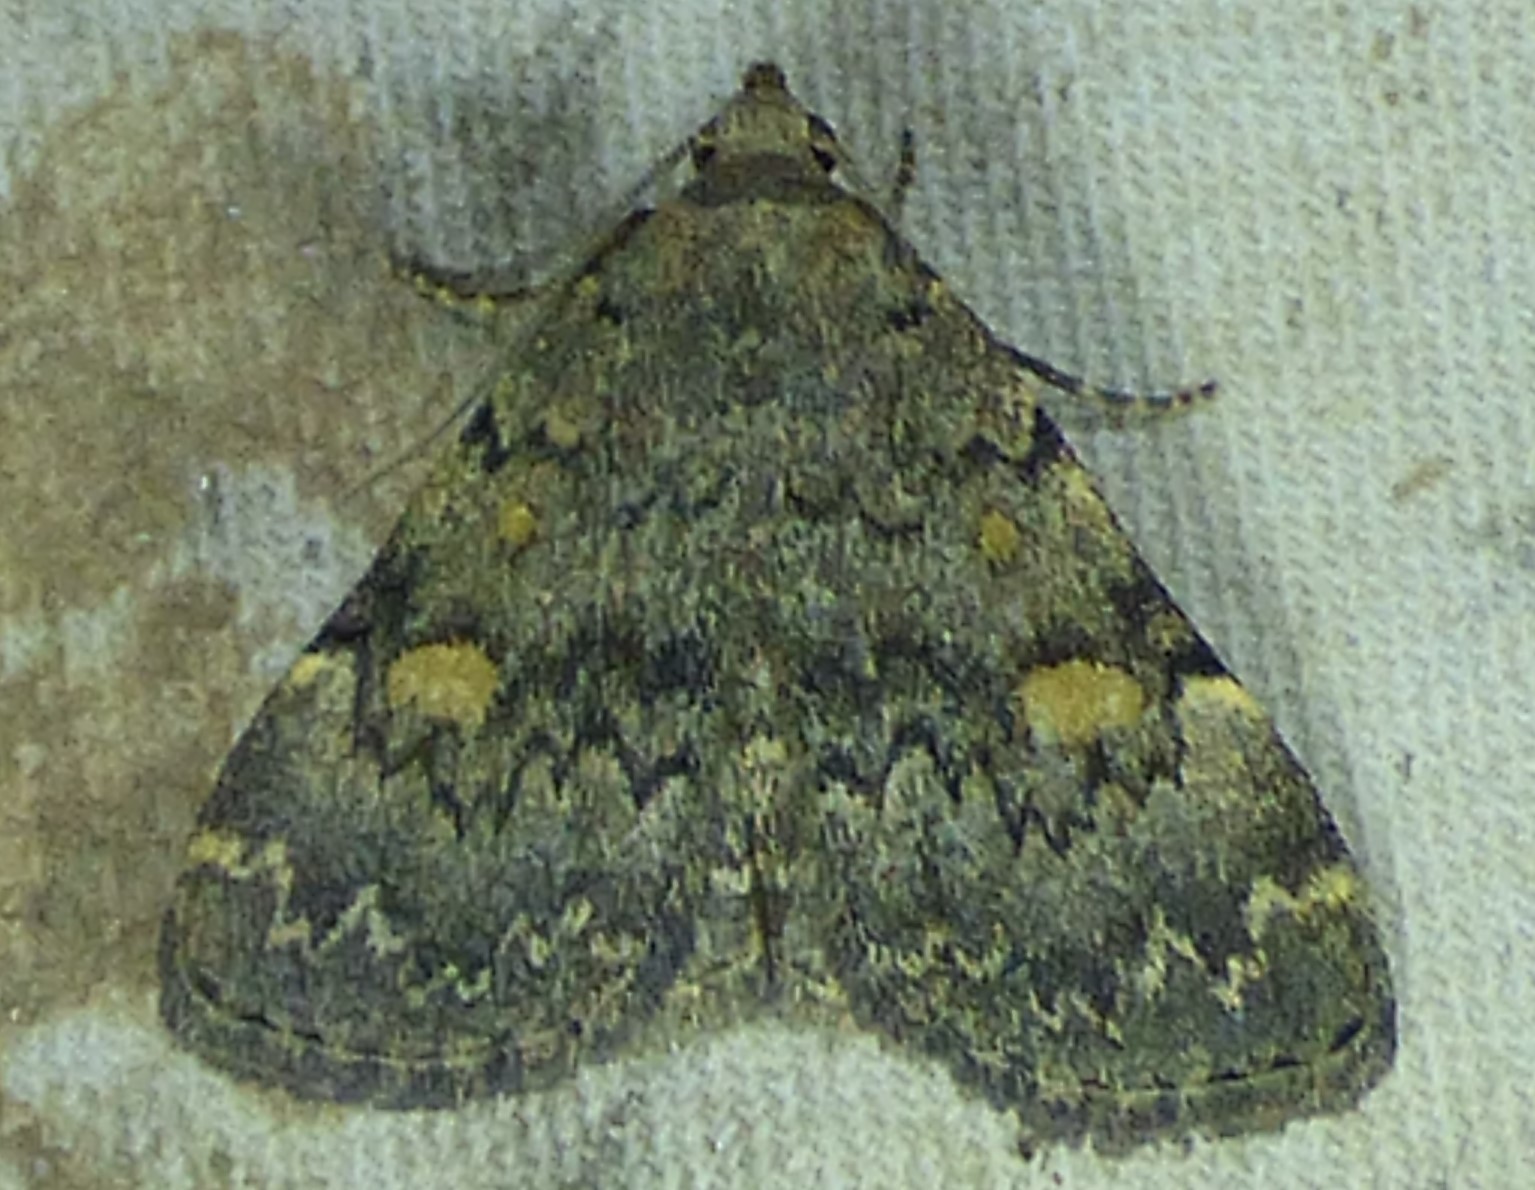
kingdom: Animalia
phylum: Arthropoda
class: Insecta
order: Lepidoptera
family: Erebidae
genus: Idia
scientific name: Idia aemula
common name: Common idia moth
